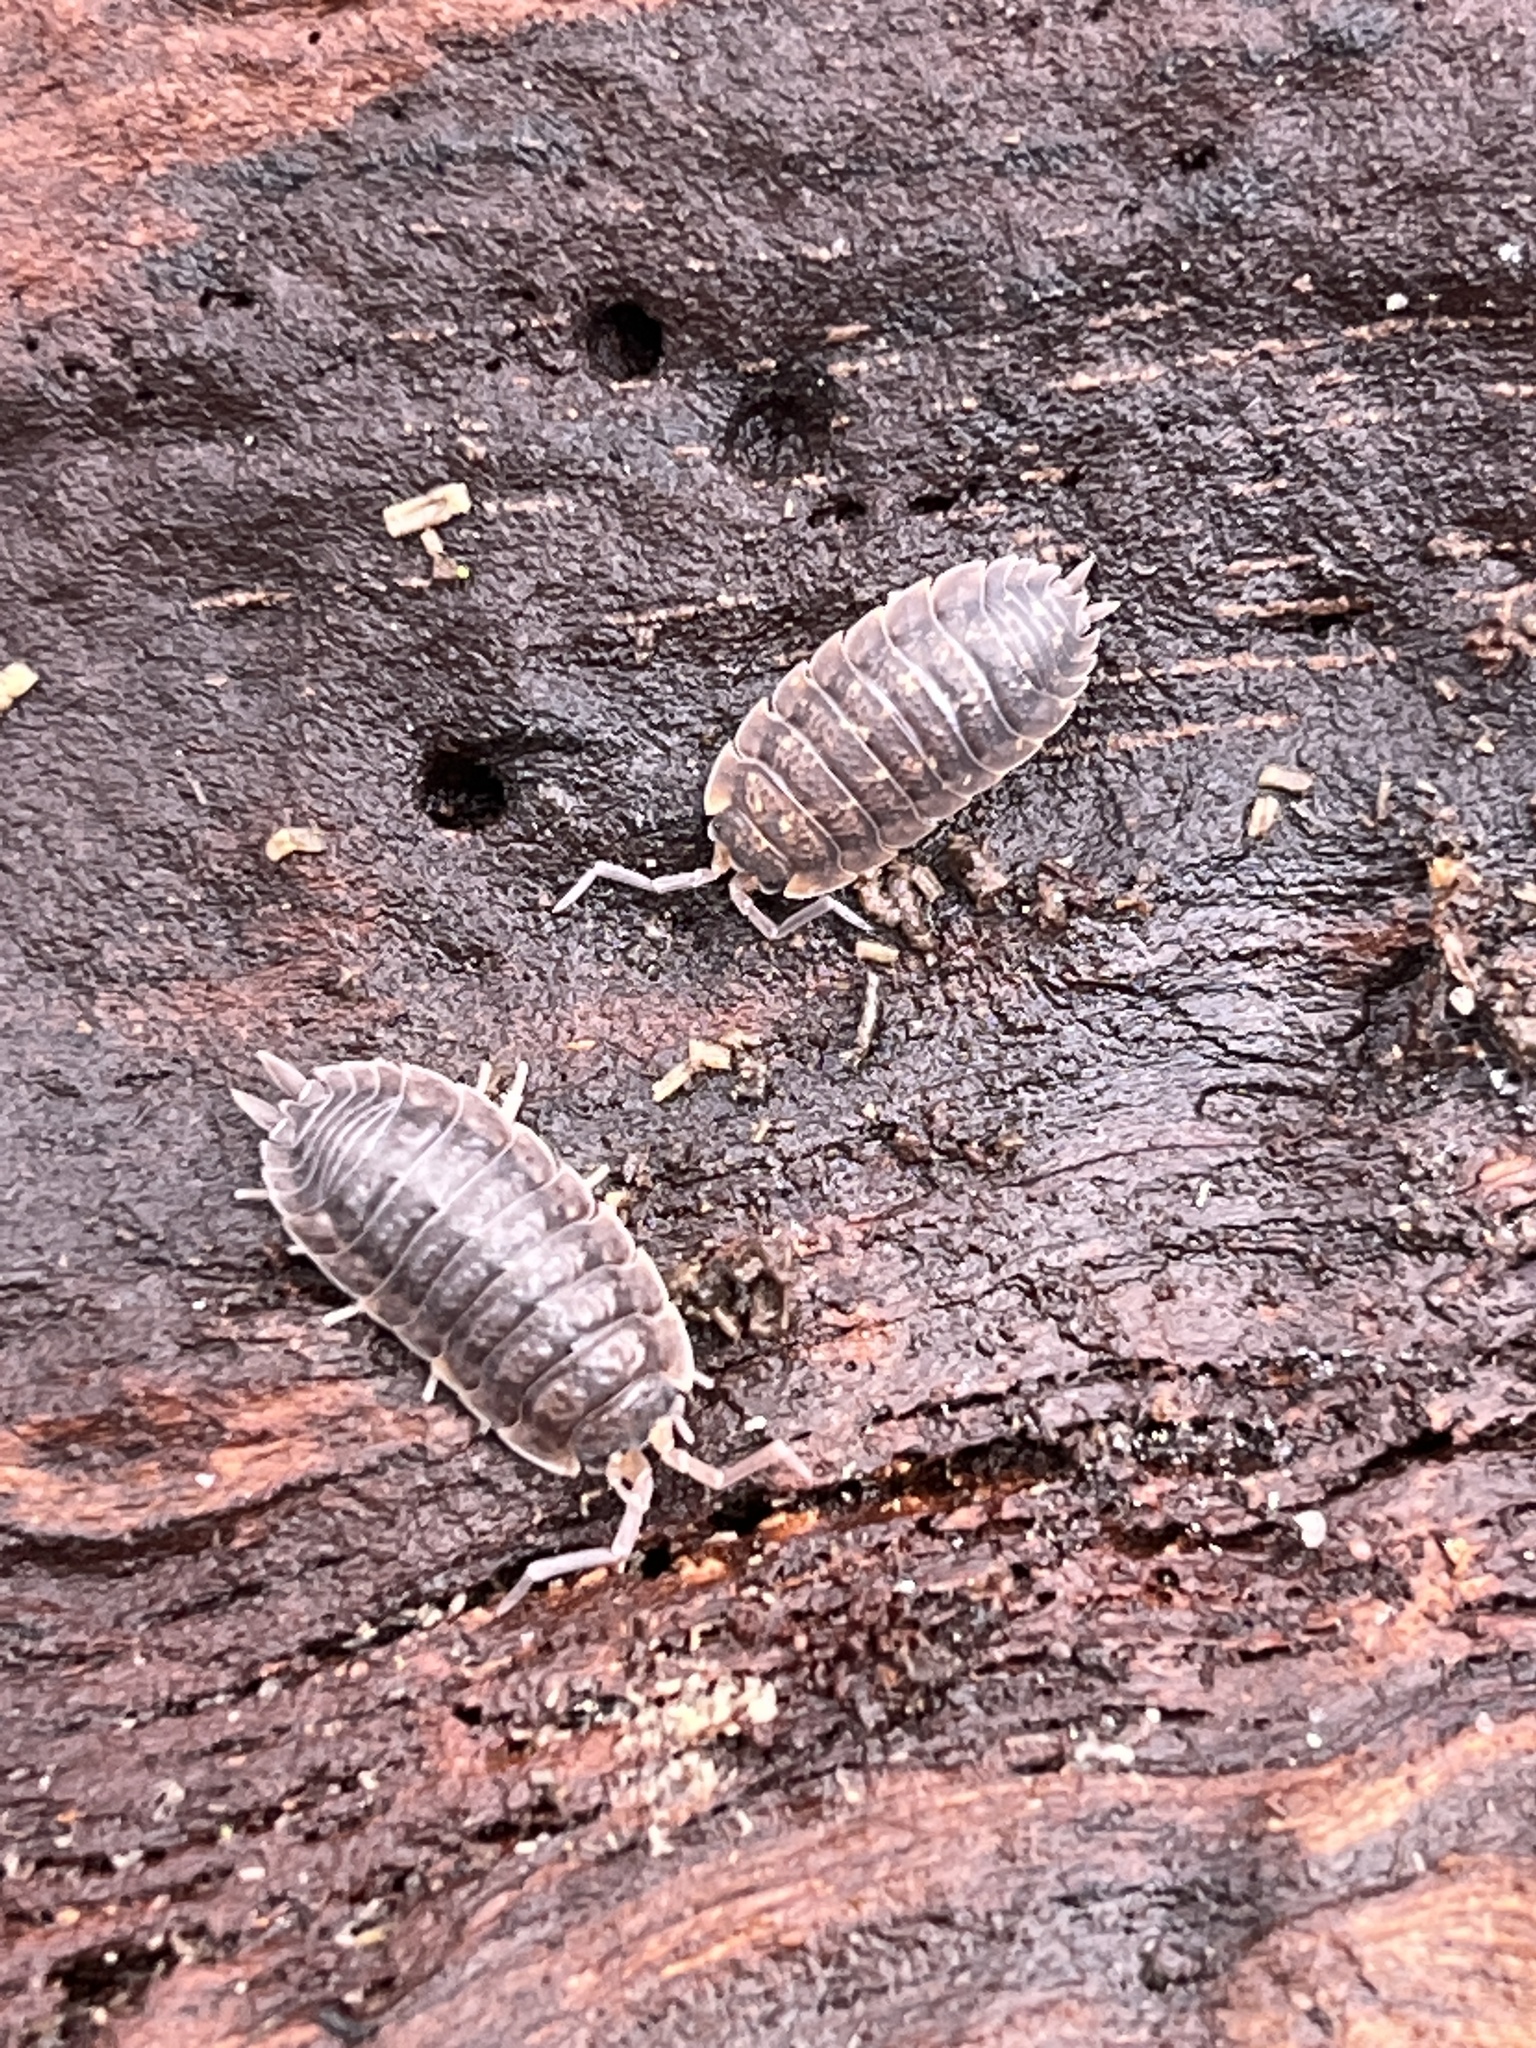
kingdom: Animalia
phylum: Arthropoda
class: Malacostraca
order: Isopoda
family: Porcellionidae
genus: Porcellio
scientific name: Porcellio scaber
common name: Common rough woodlouse
